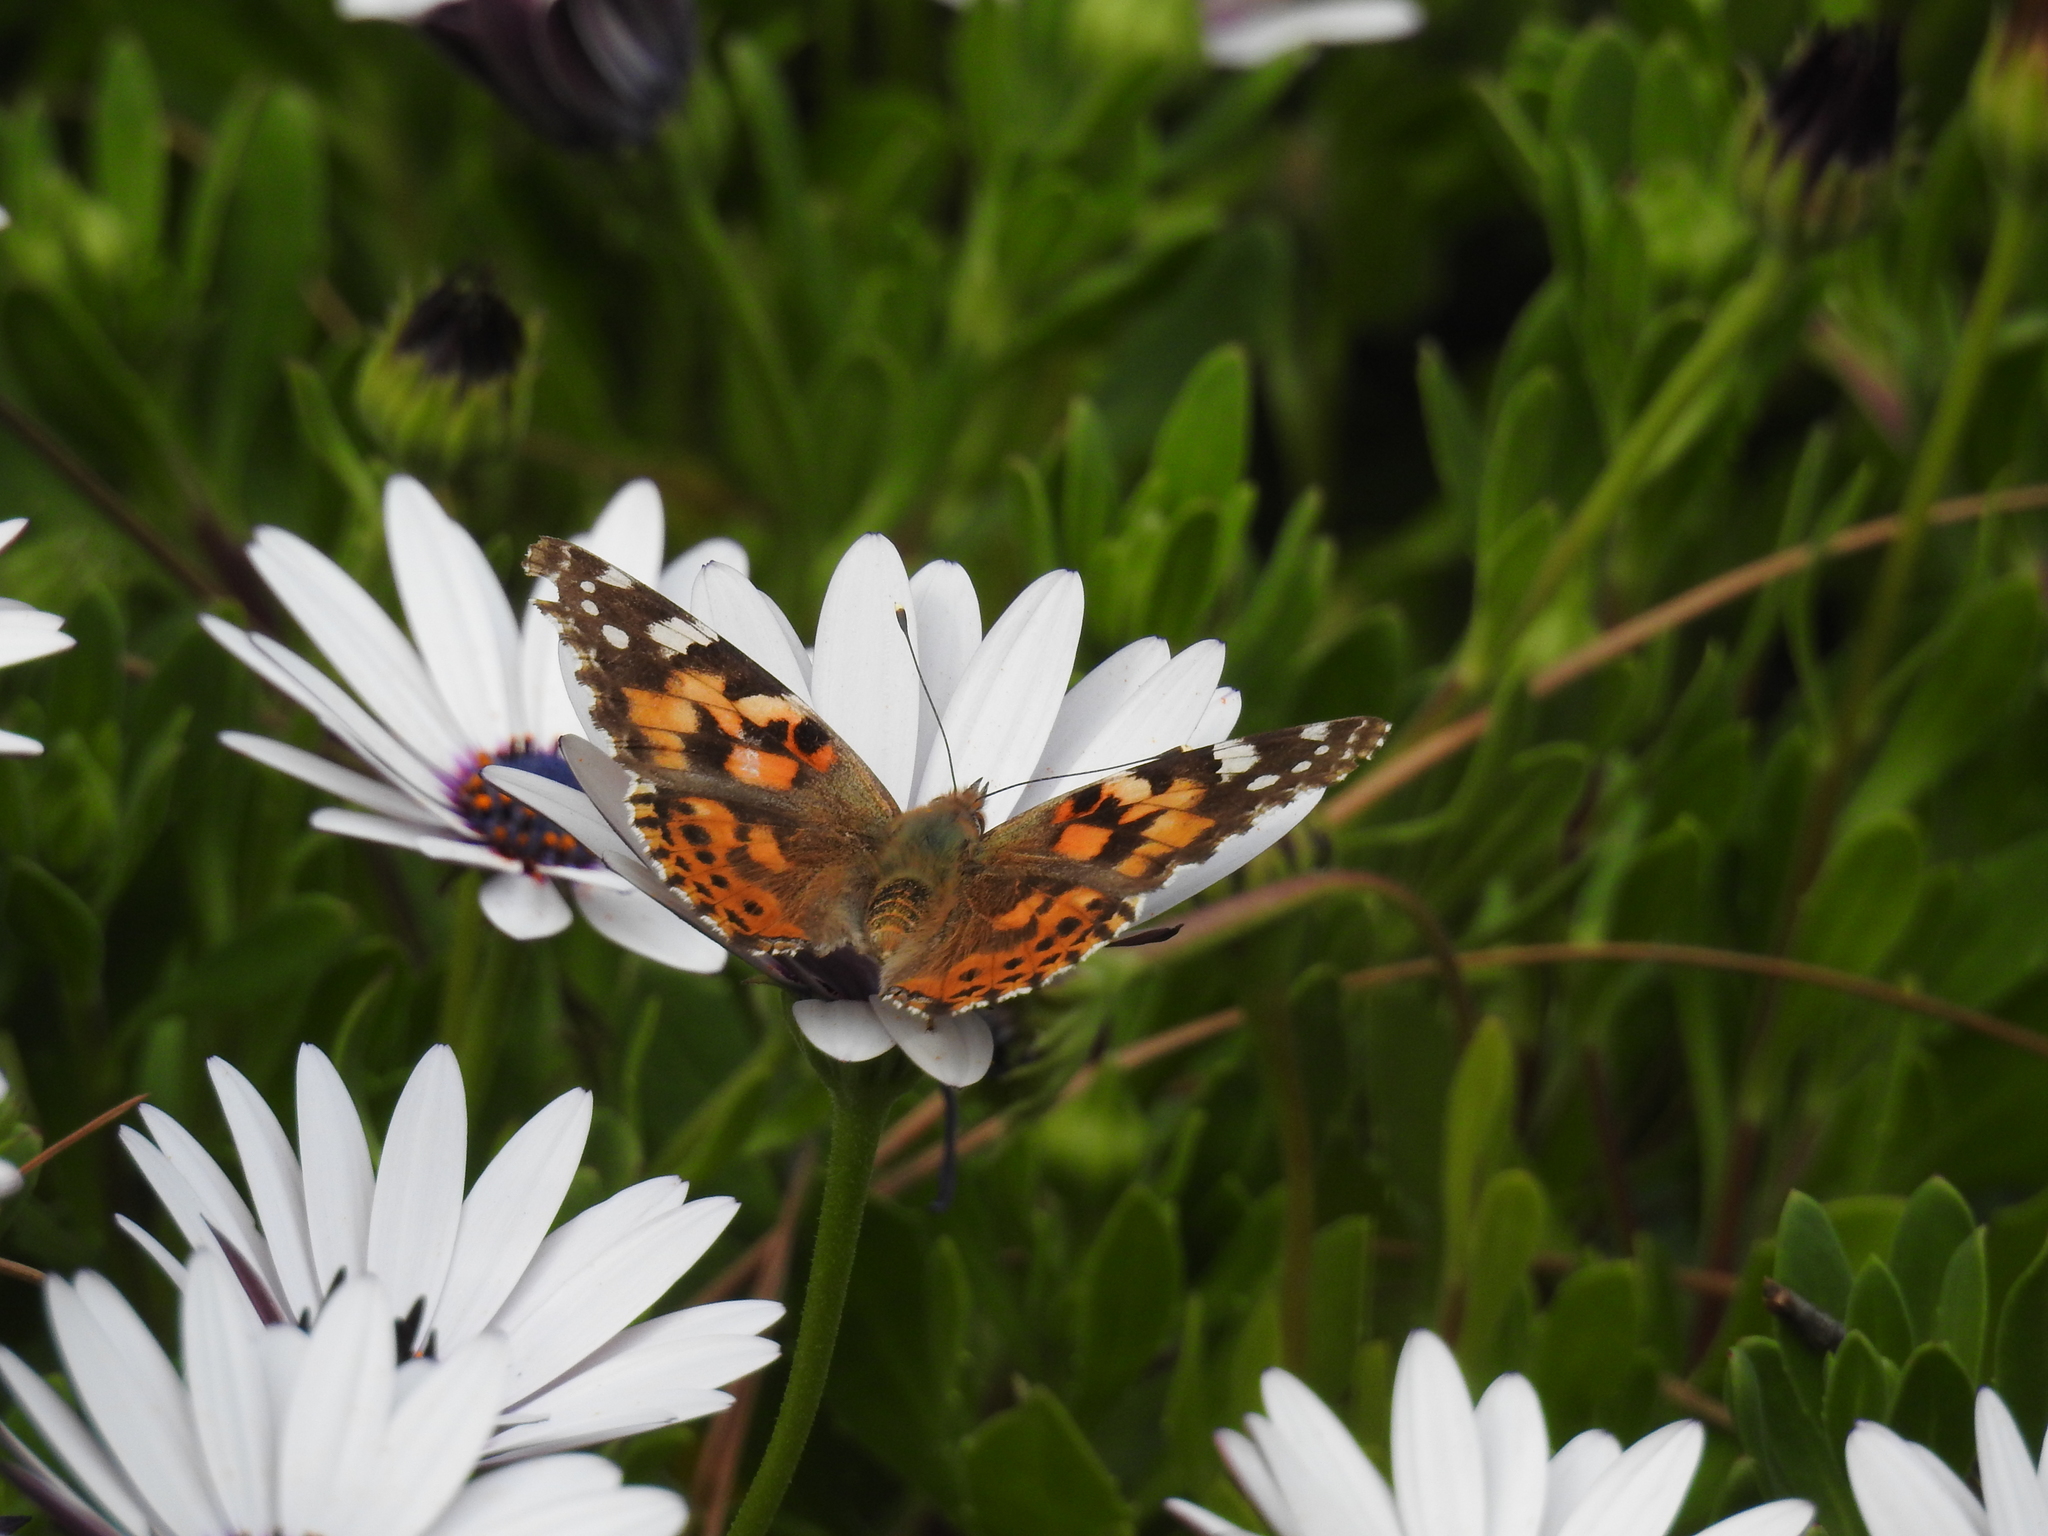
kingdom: Animalia
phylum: Arthropoda
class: Insecta
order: Lepidoptera
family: Nymphalidae
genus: Vanessa
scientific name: Vanessa cardui
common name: Painted lady
